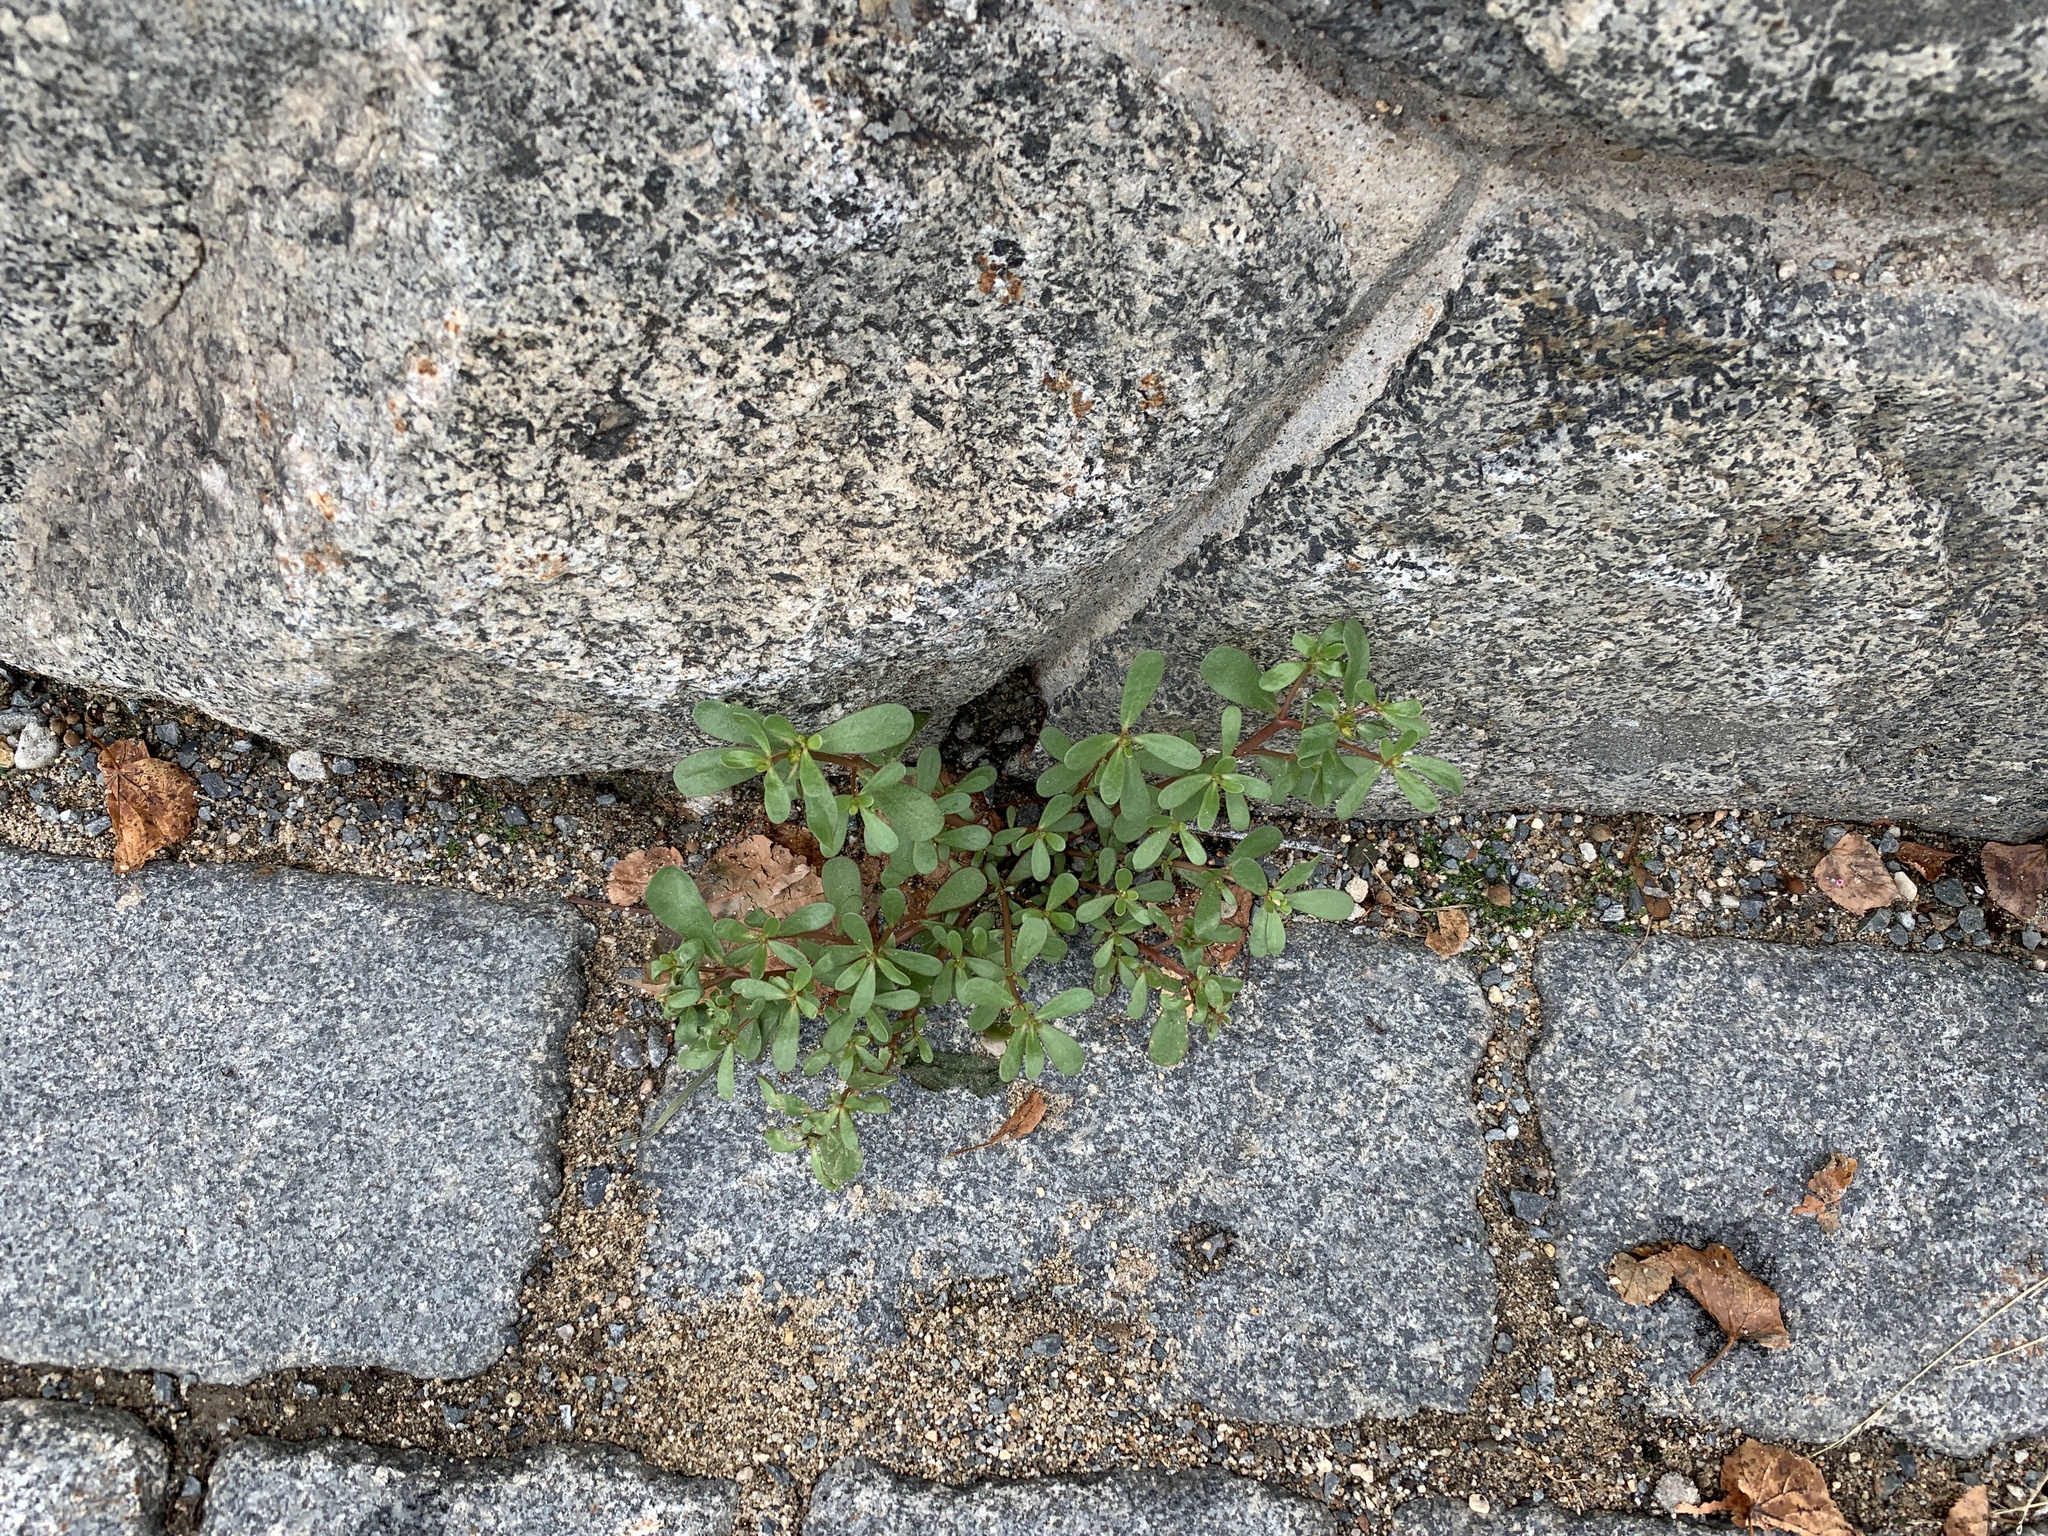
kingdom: Plantae
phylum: Tracheophyta
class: Magnoliopsida
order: Caryophyllales
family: Portulacaceae
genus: Portulaca
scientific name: Portulaca oleracea
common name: Common purslane
